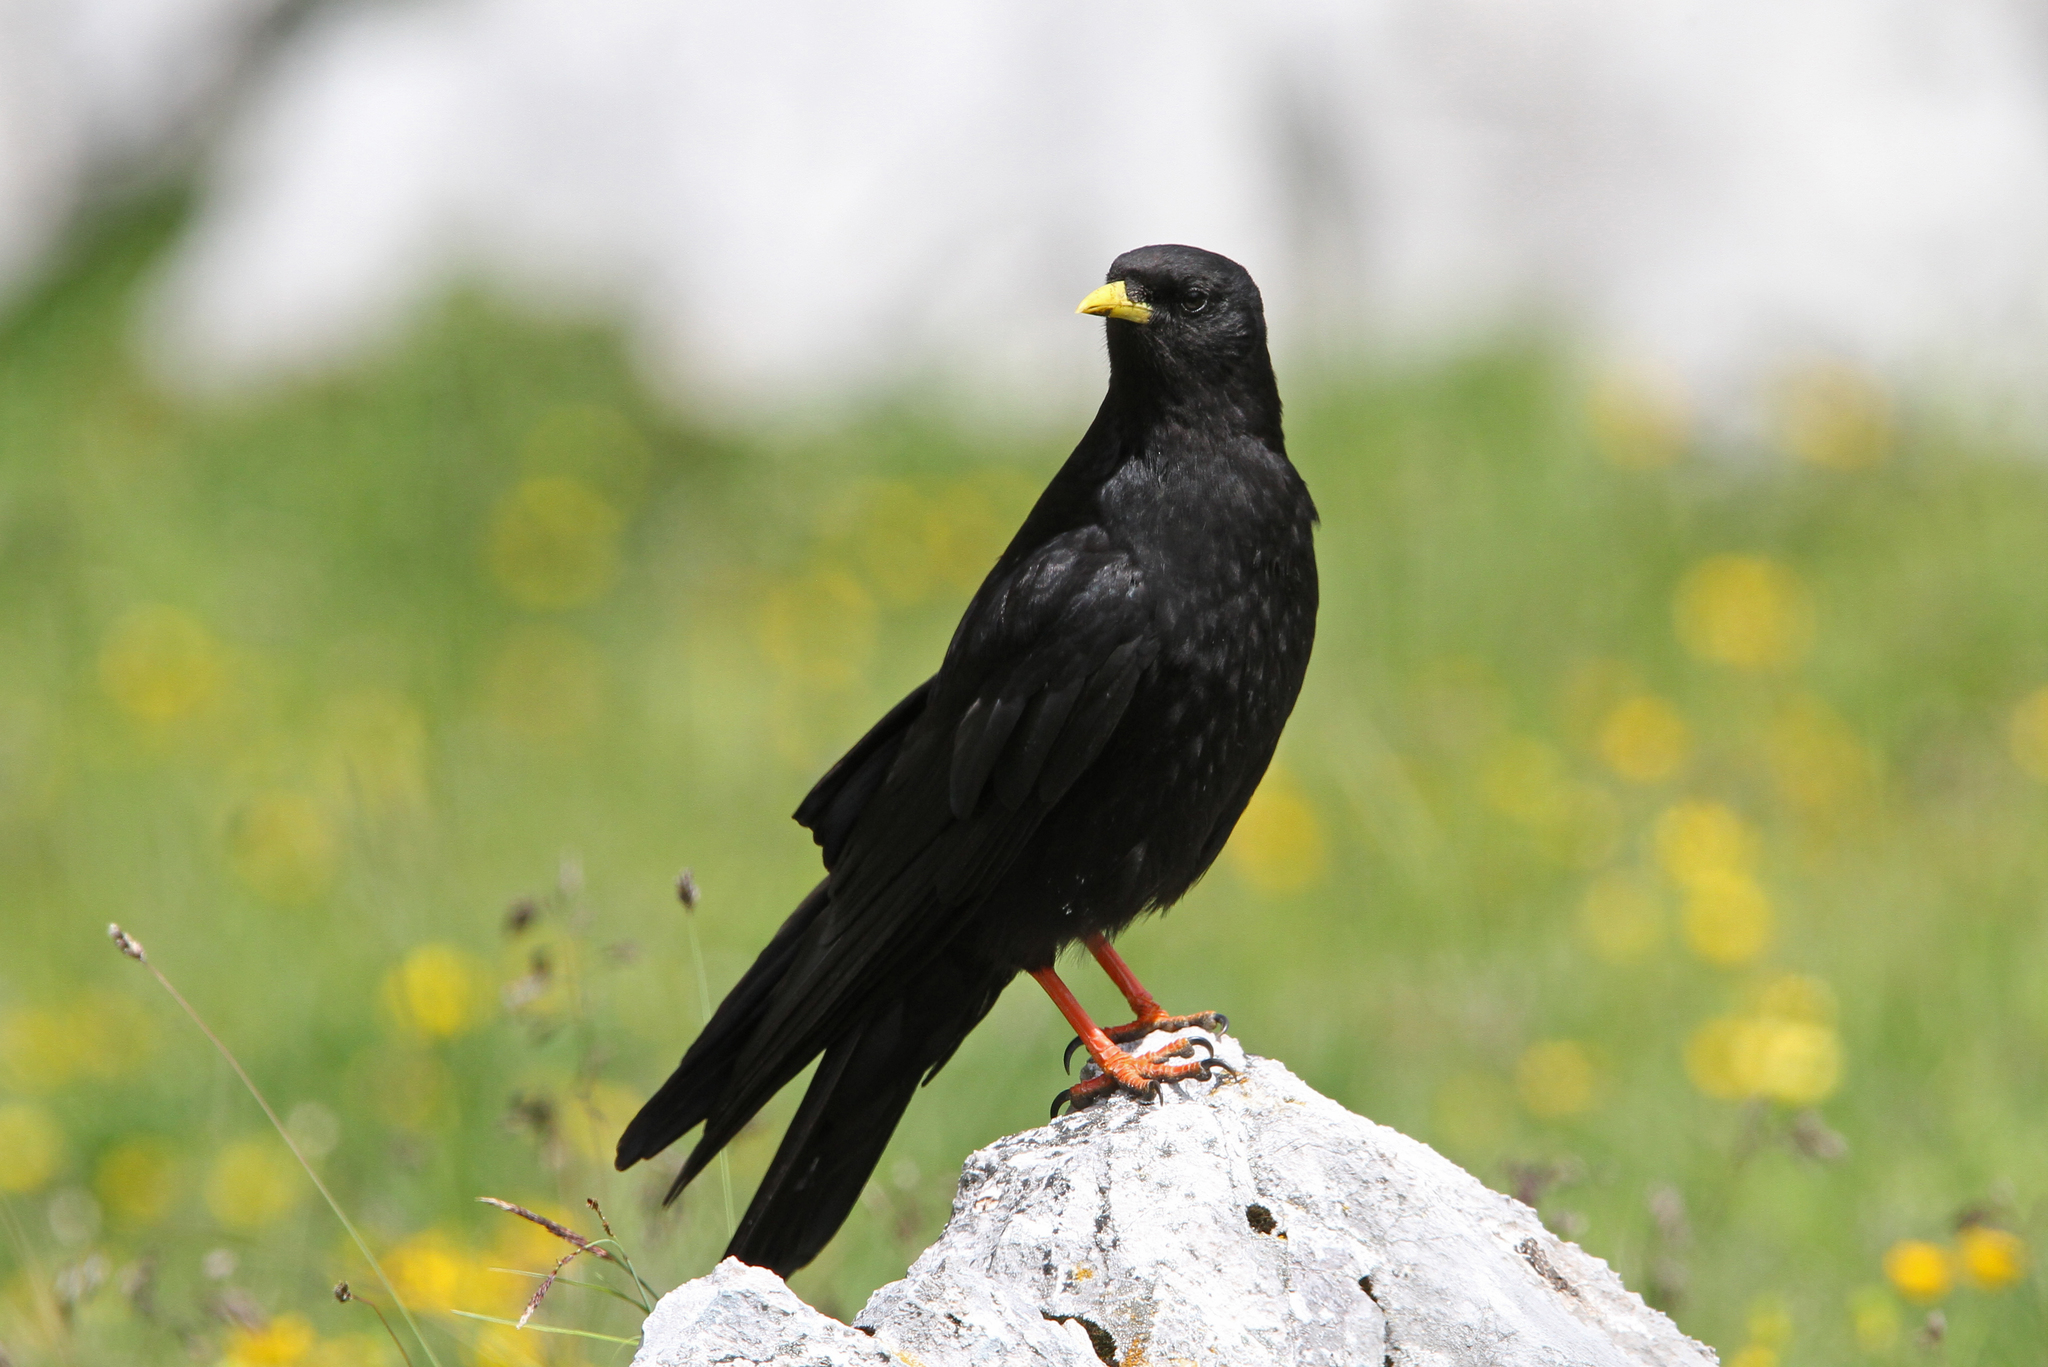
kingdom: Animalia
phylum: Chordata
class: Aves
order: Passeriformes
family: Corvidae
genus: Pyrrhocorax
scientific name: Pyrrhocorax graculus
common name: Alpine chough
